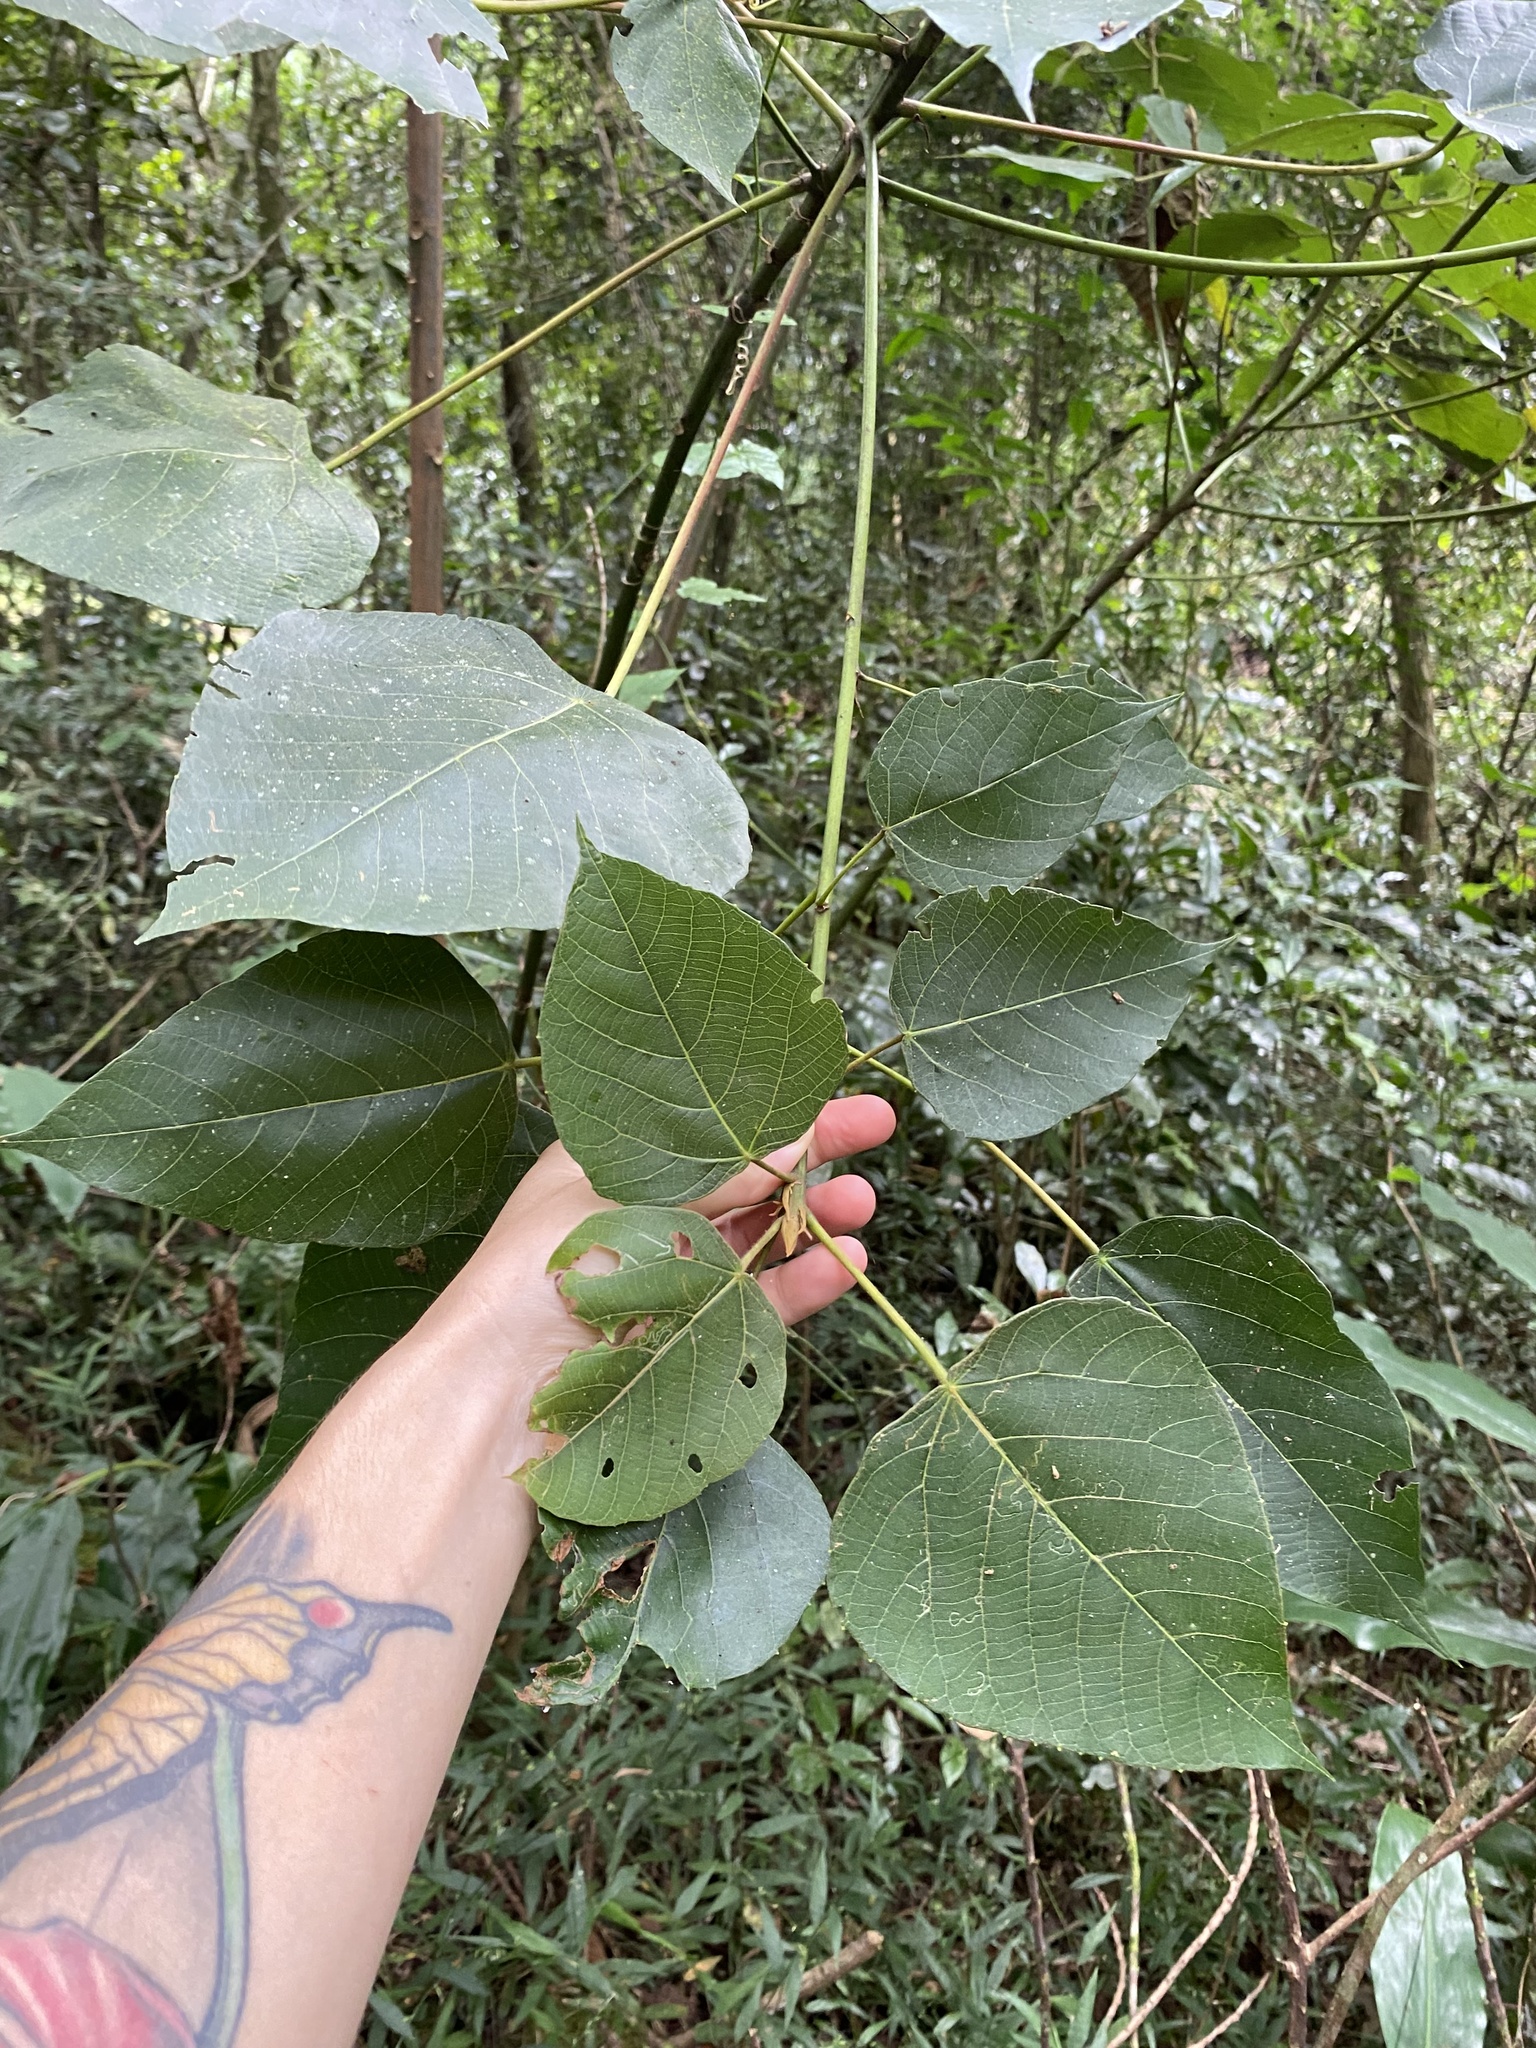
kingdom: Plantae
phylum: Tracheophyta
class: Magnoliopsida
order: Malpighiales
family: Euphorbiaceae
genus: Macaranga
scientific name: Macaranga capensis
